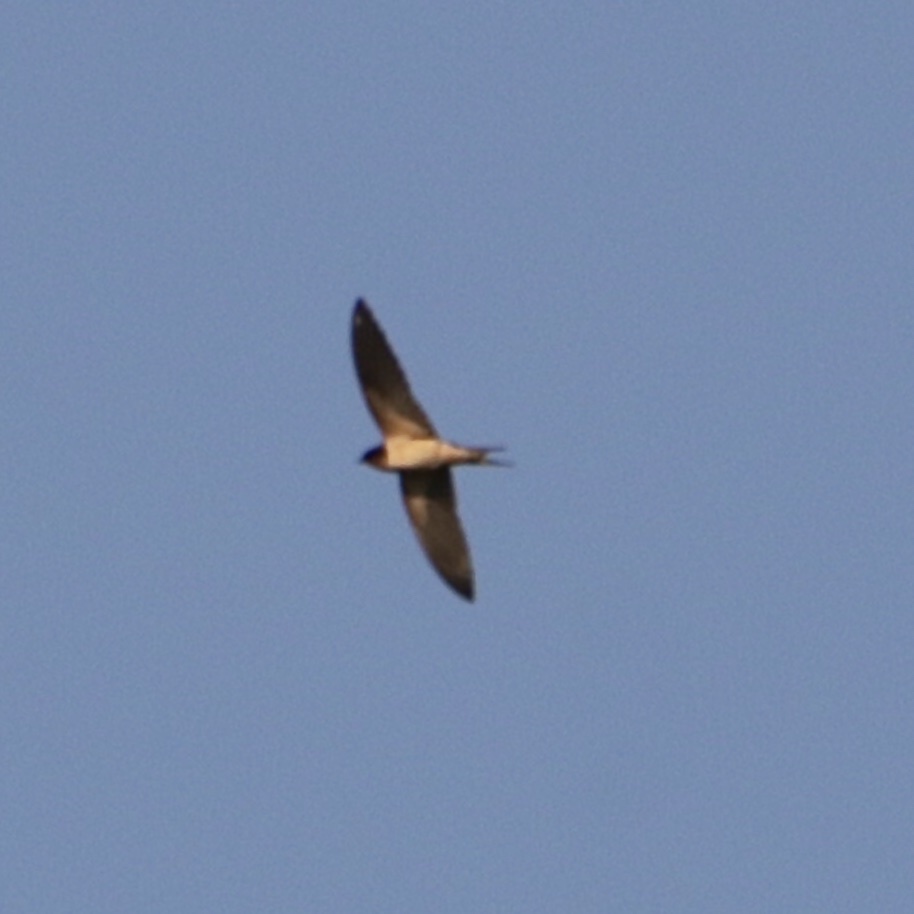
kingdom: Animalia
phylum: Chordata
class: Aves
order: Passeriformes
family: Hirundinidae
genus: Hirundo
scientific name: Hirundo rustica
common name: Barn swallow
